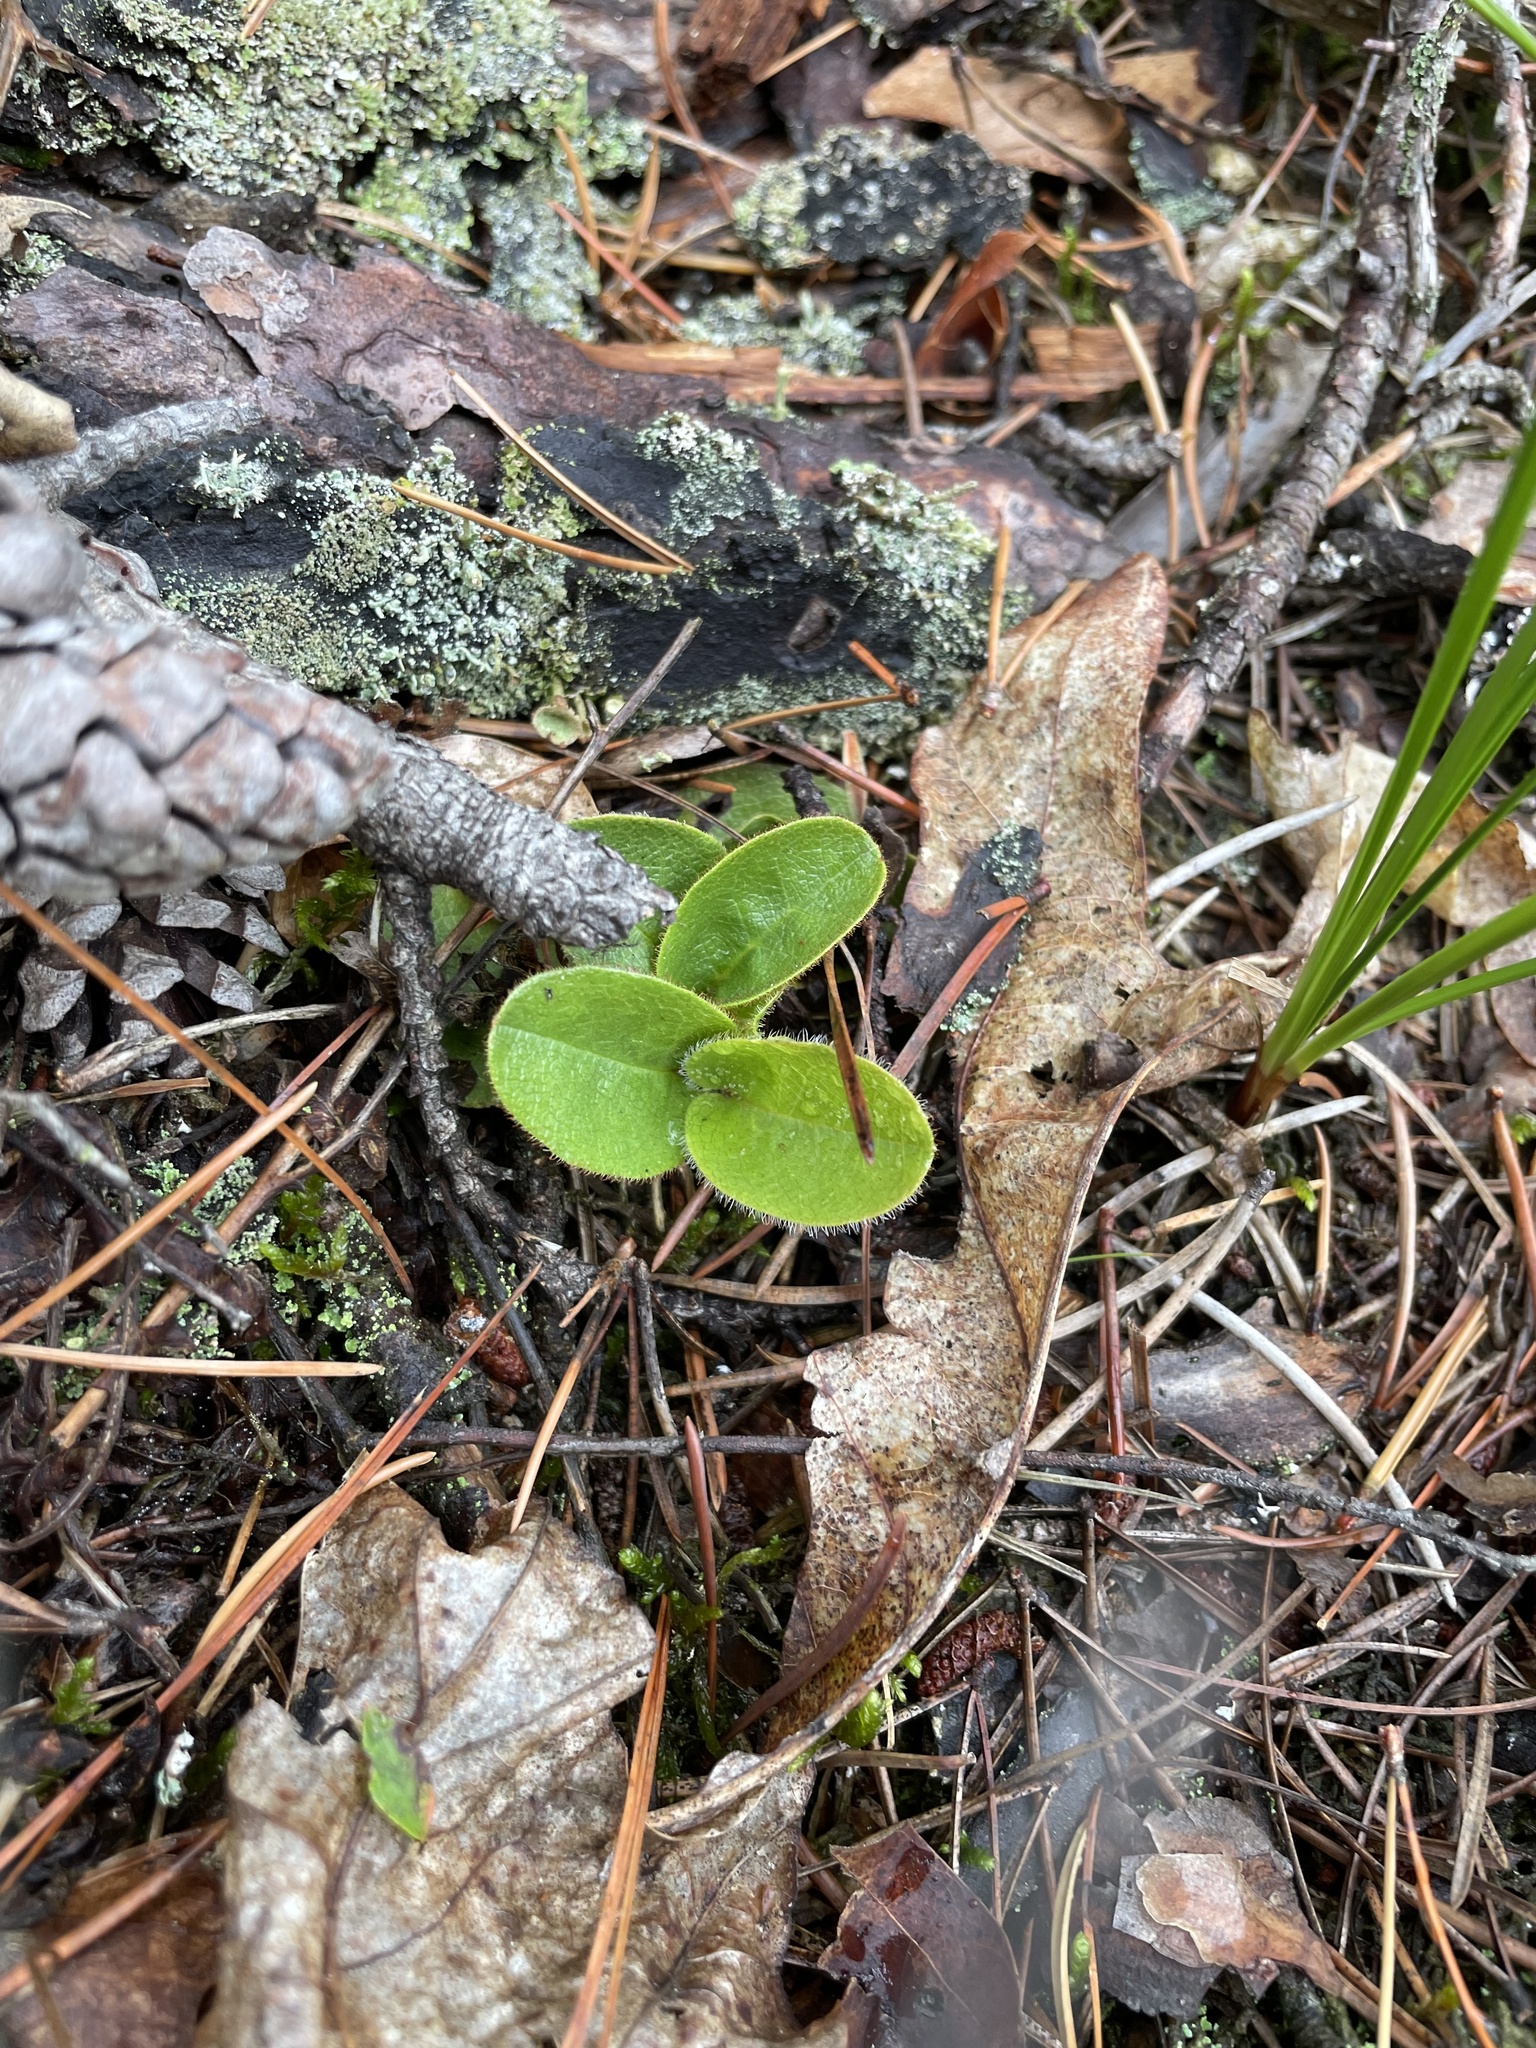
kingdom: Plantae
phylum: Tracheophyta
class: Magnoliopsida
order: Ericales
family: Ericaceae
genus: Epigaea
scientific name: Epigaea repens
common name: Gravelroot
